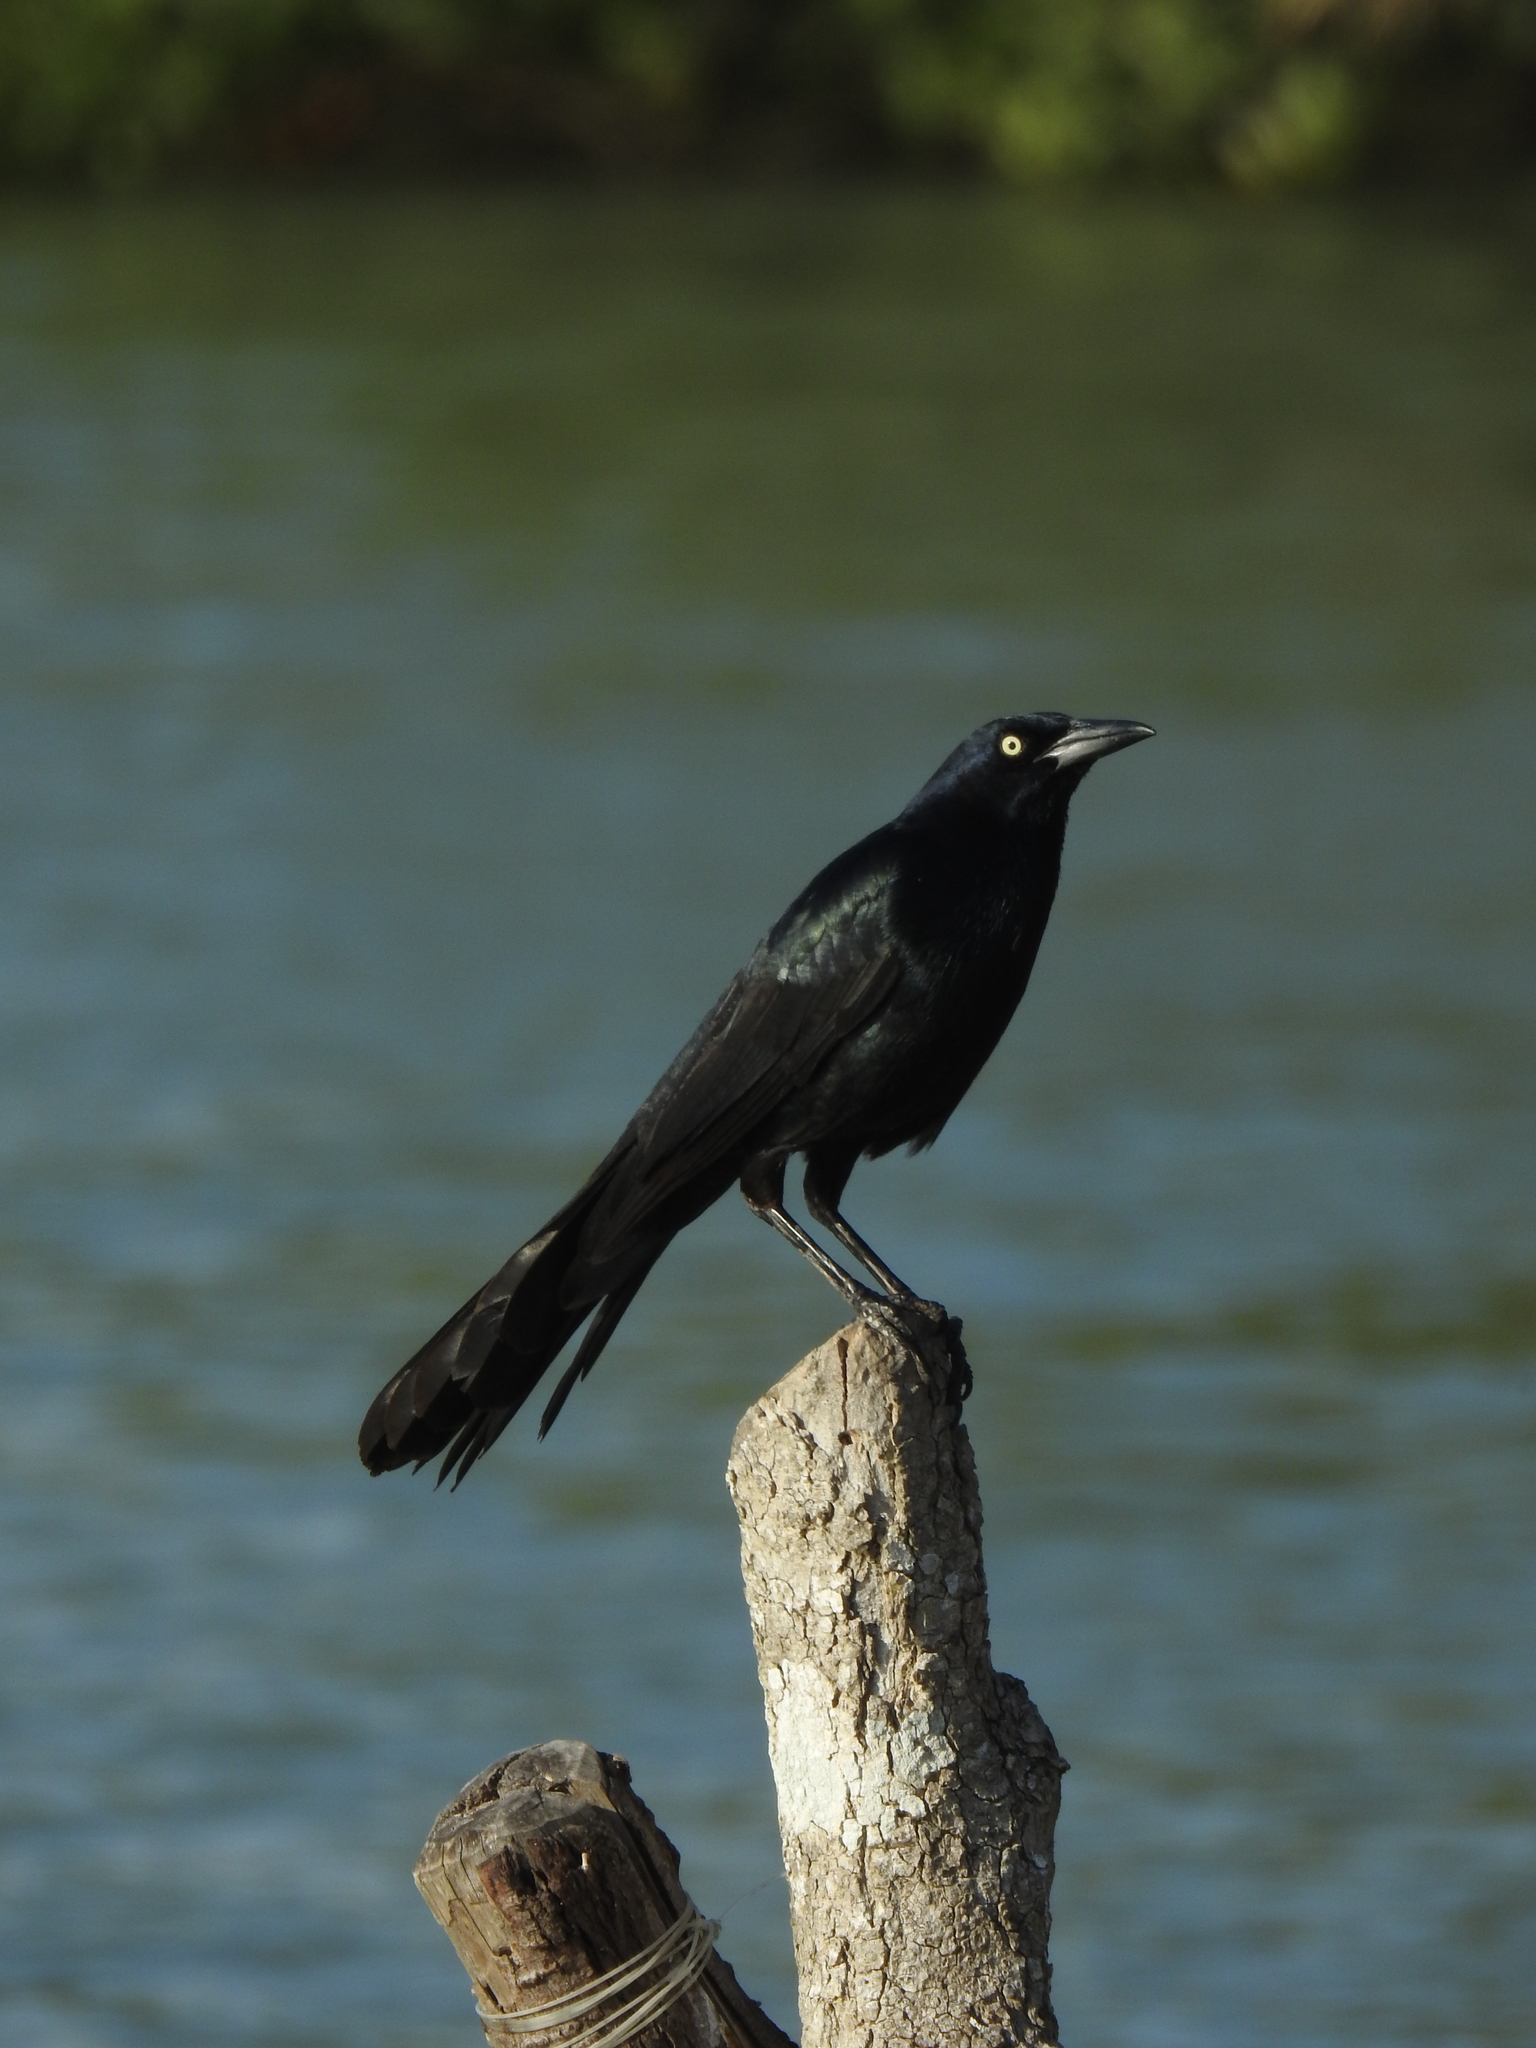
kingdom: Animalia
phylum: Chordata
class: Aves
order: Passeriformes
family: Icteridae
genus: Quiscalus
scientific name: Quiscalus mexicanus
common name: Great-tailed grackle
